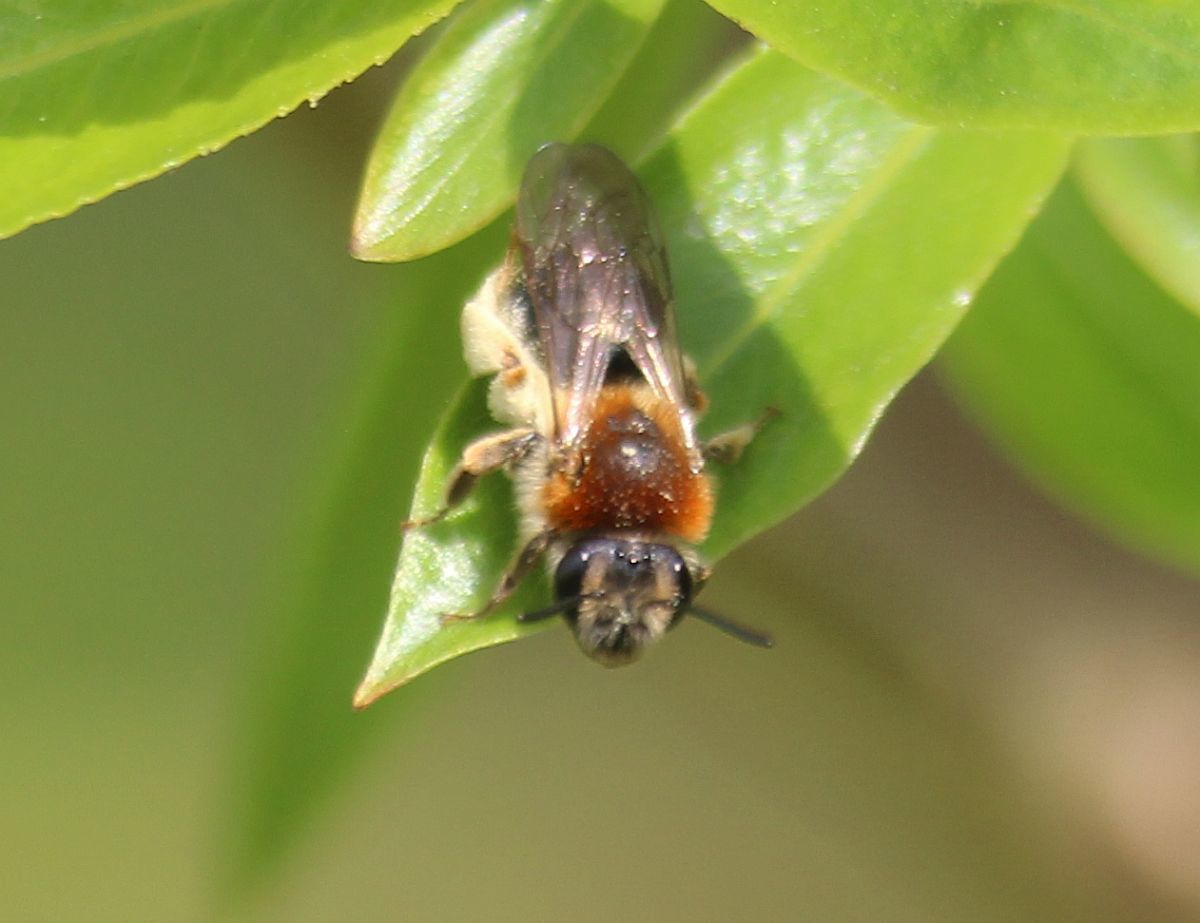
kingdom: Animalia
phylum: Arthropoda
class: Insecta
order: Hymenoptera
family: Andrenidae
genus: Andrena
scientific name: Andrena haemorrhoa
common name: Early mining bee
